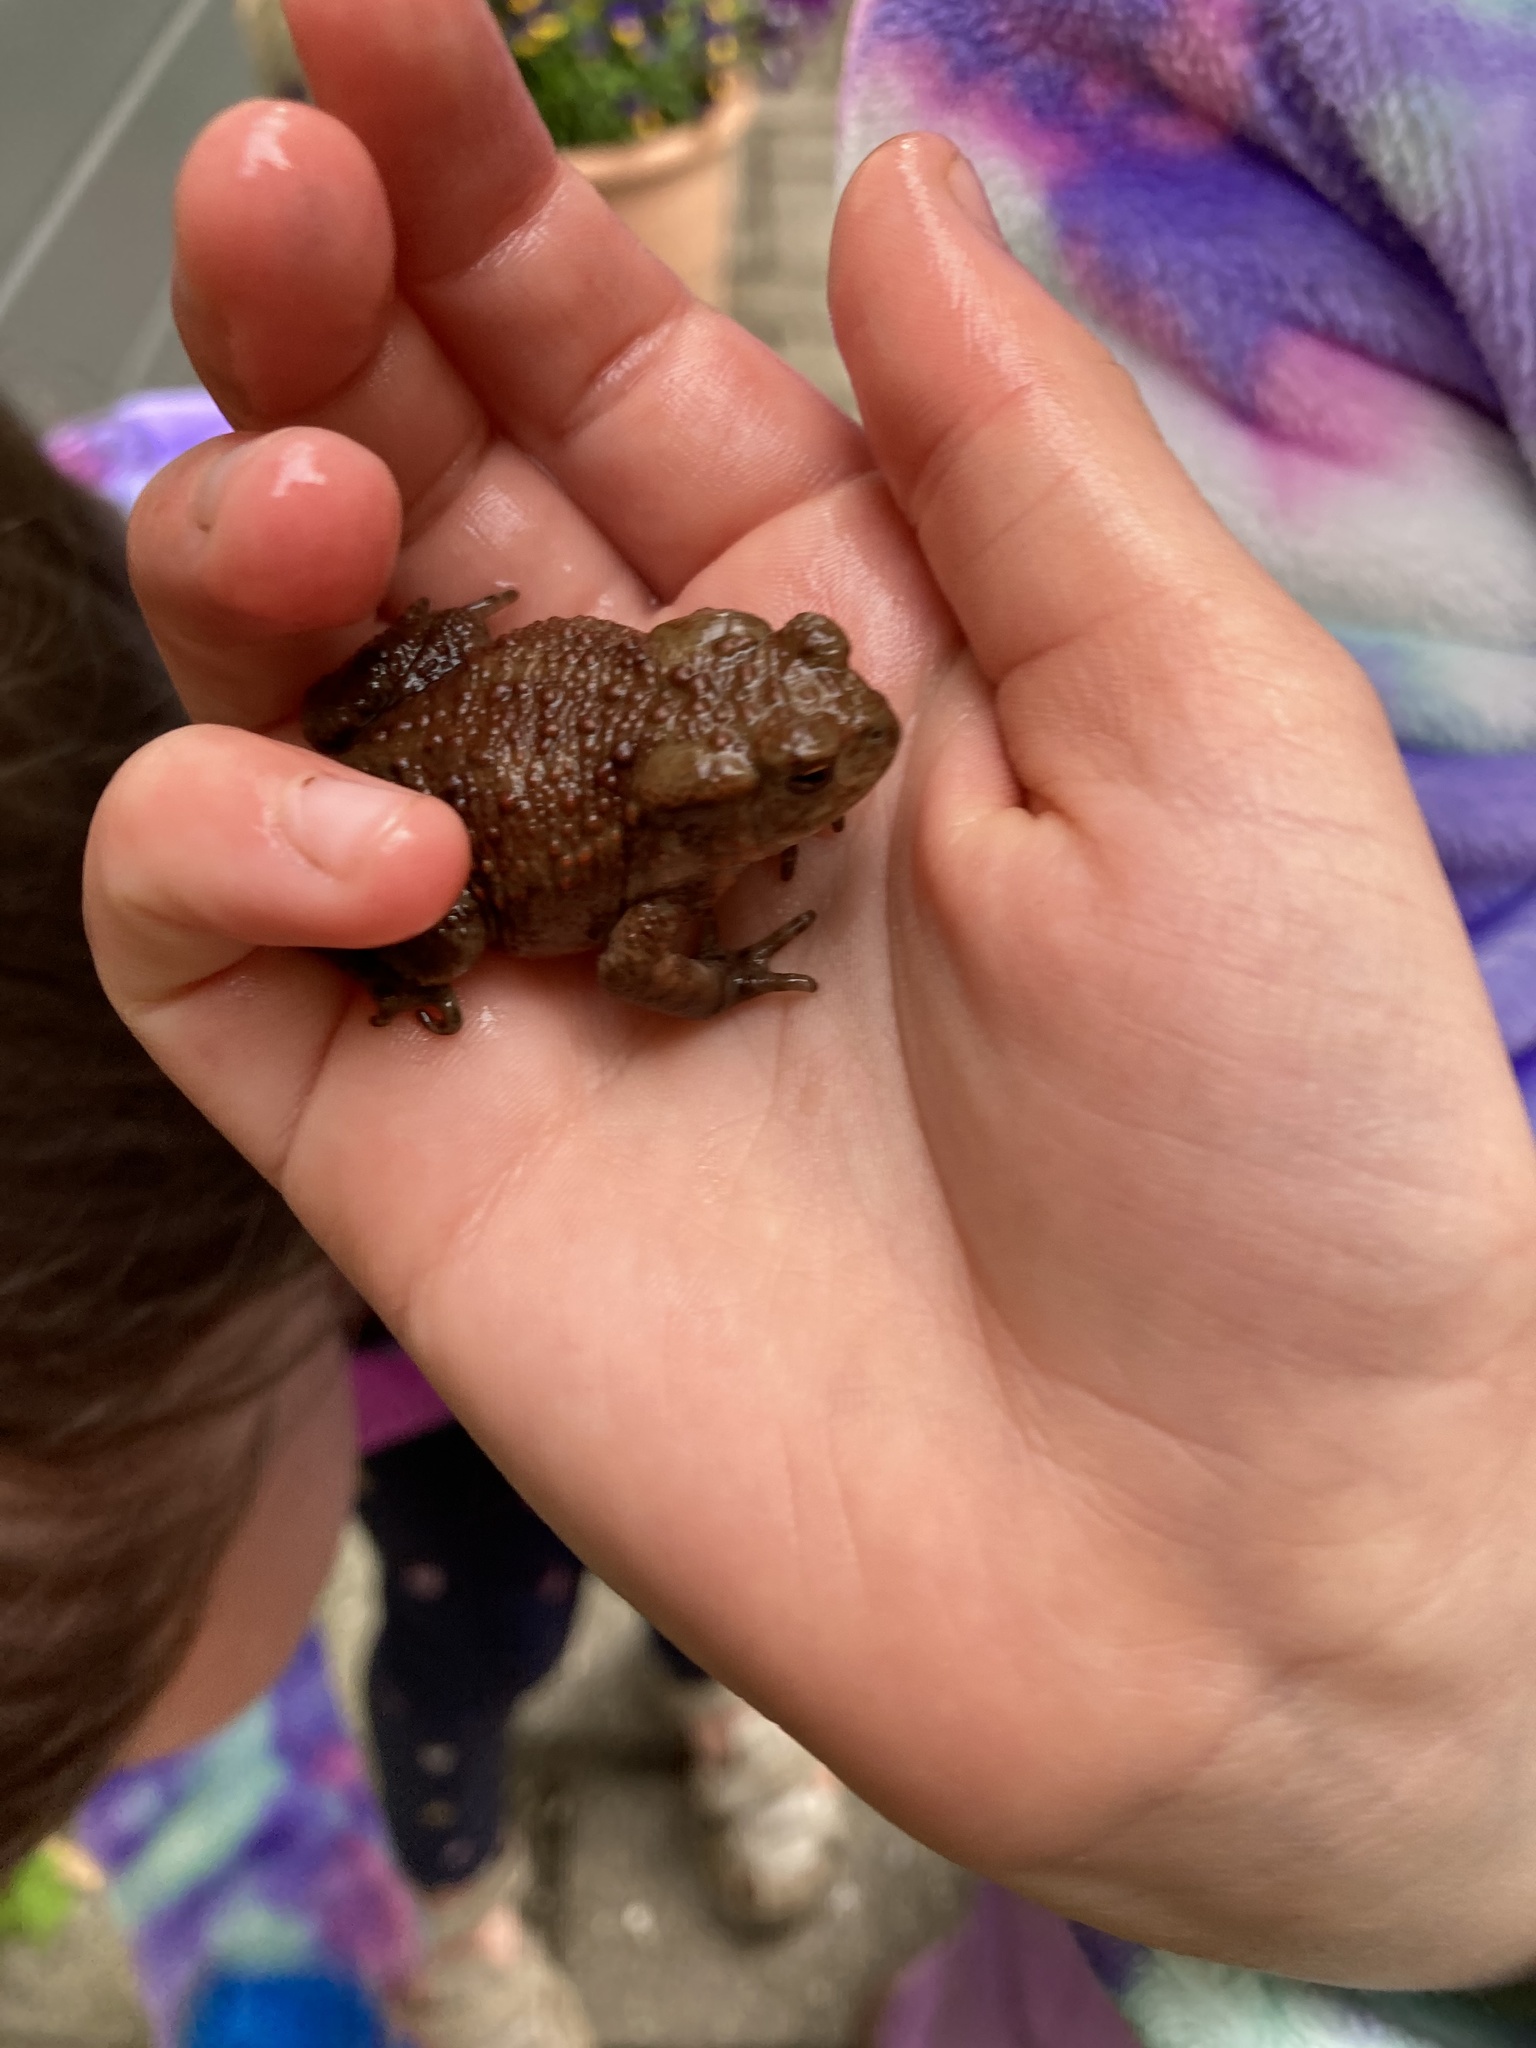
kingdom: Animalia
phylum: Chordata
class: Amphibia
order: Anura
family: Bufonidae
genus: Bufo
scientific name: Bufo bufo
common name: Common toad
